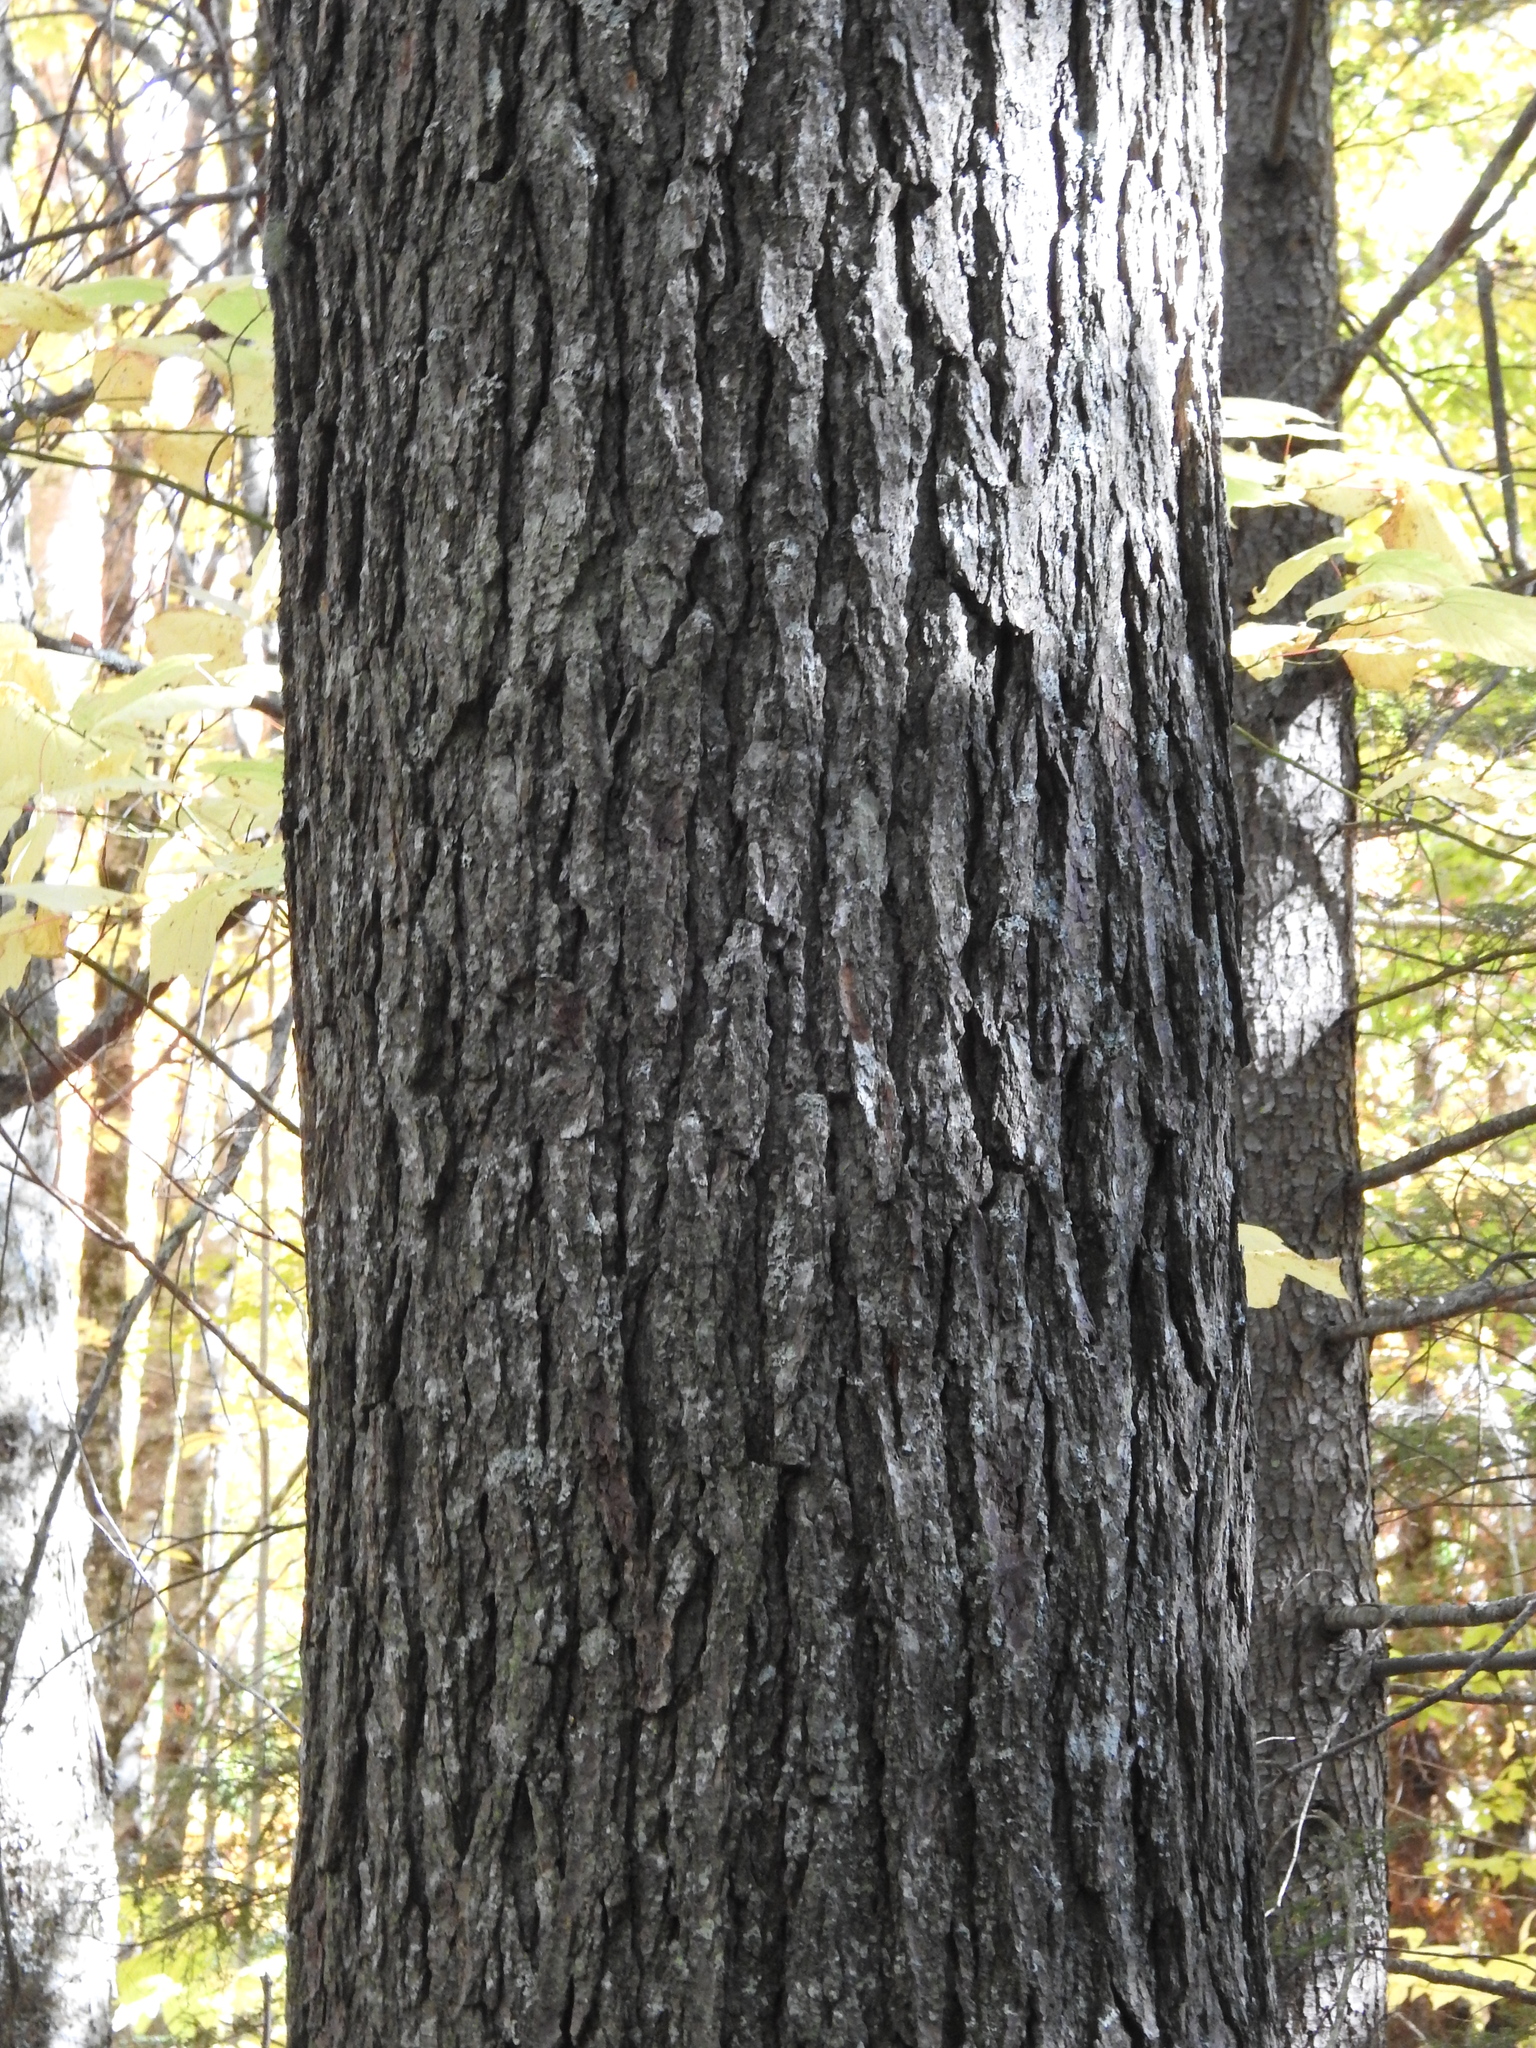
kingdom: Plantae
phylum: Tracheophyta
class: Pinopsida
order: Pinales
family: Pinaceae
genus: Tsuga
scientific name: Tsuga canadensis
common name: Eastern hemlock
